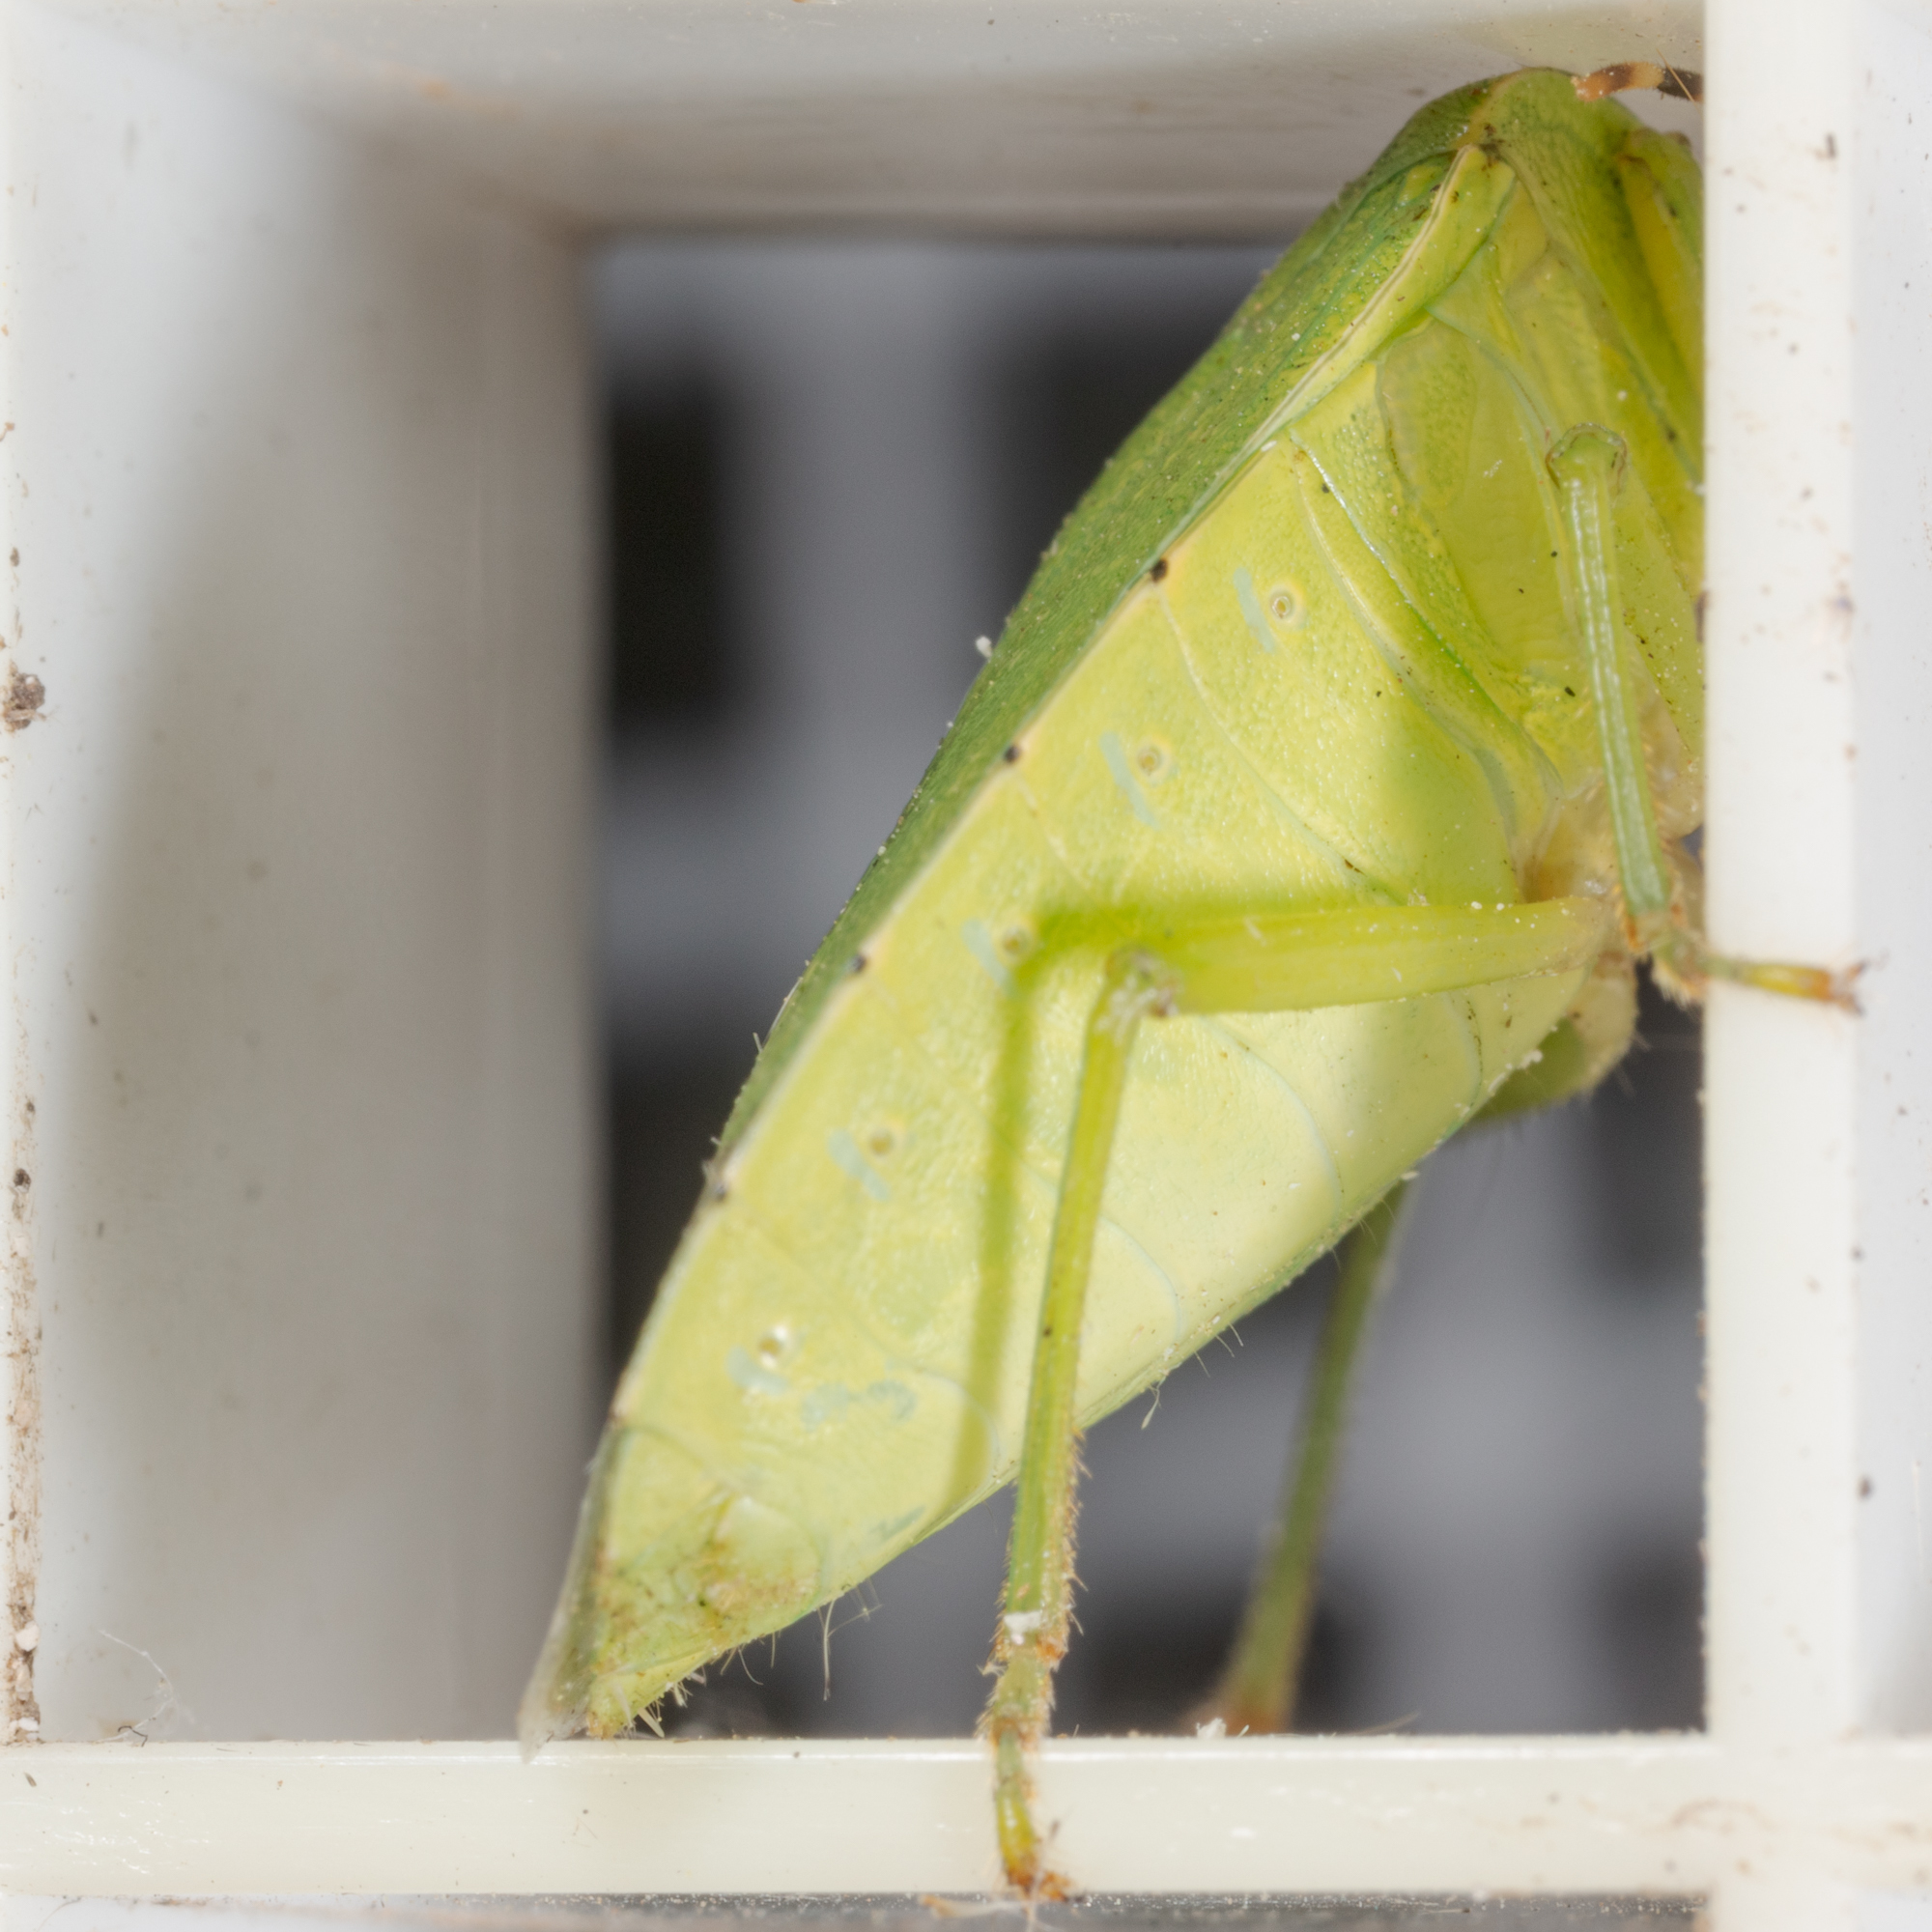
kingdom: Animalia
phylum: Arthropoda
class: Insecta
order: Hemiptera
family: Pentatomidae
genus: Chinavia
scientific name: Chinavia hilaris
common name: Green stink bug
